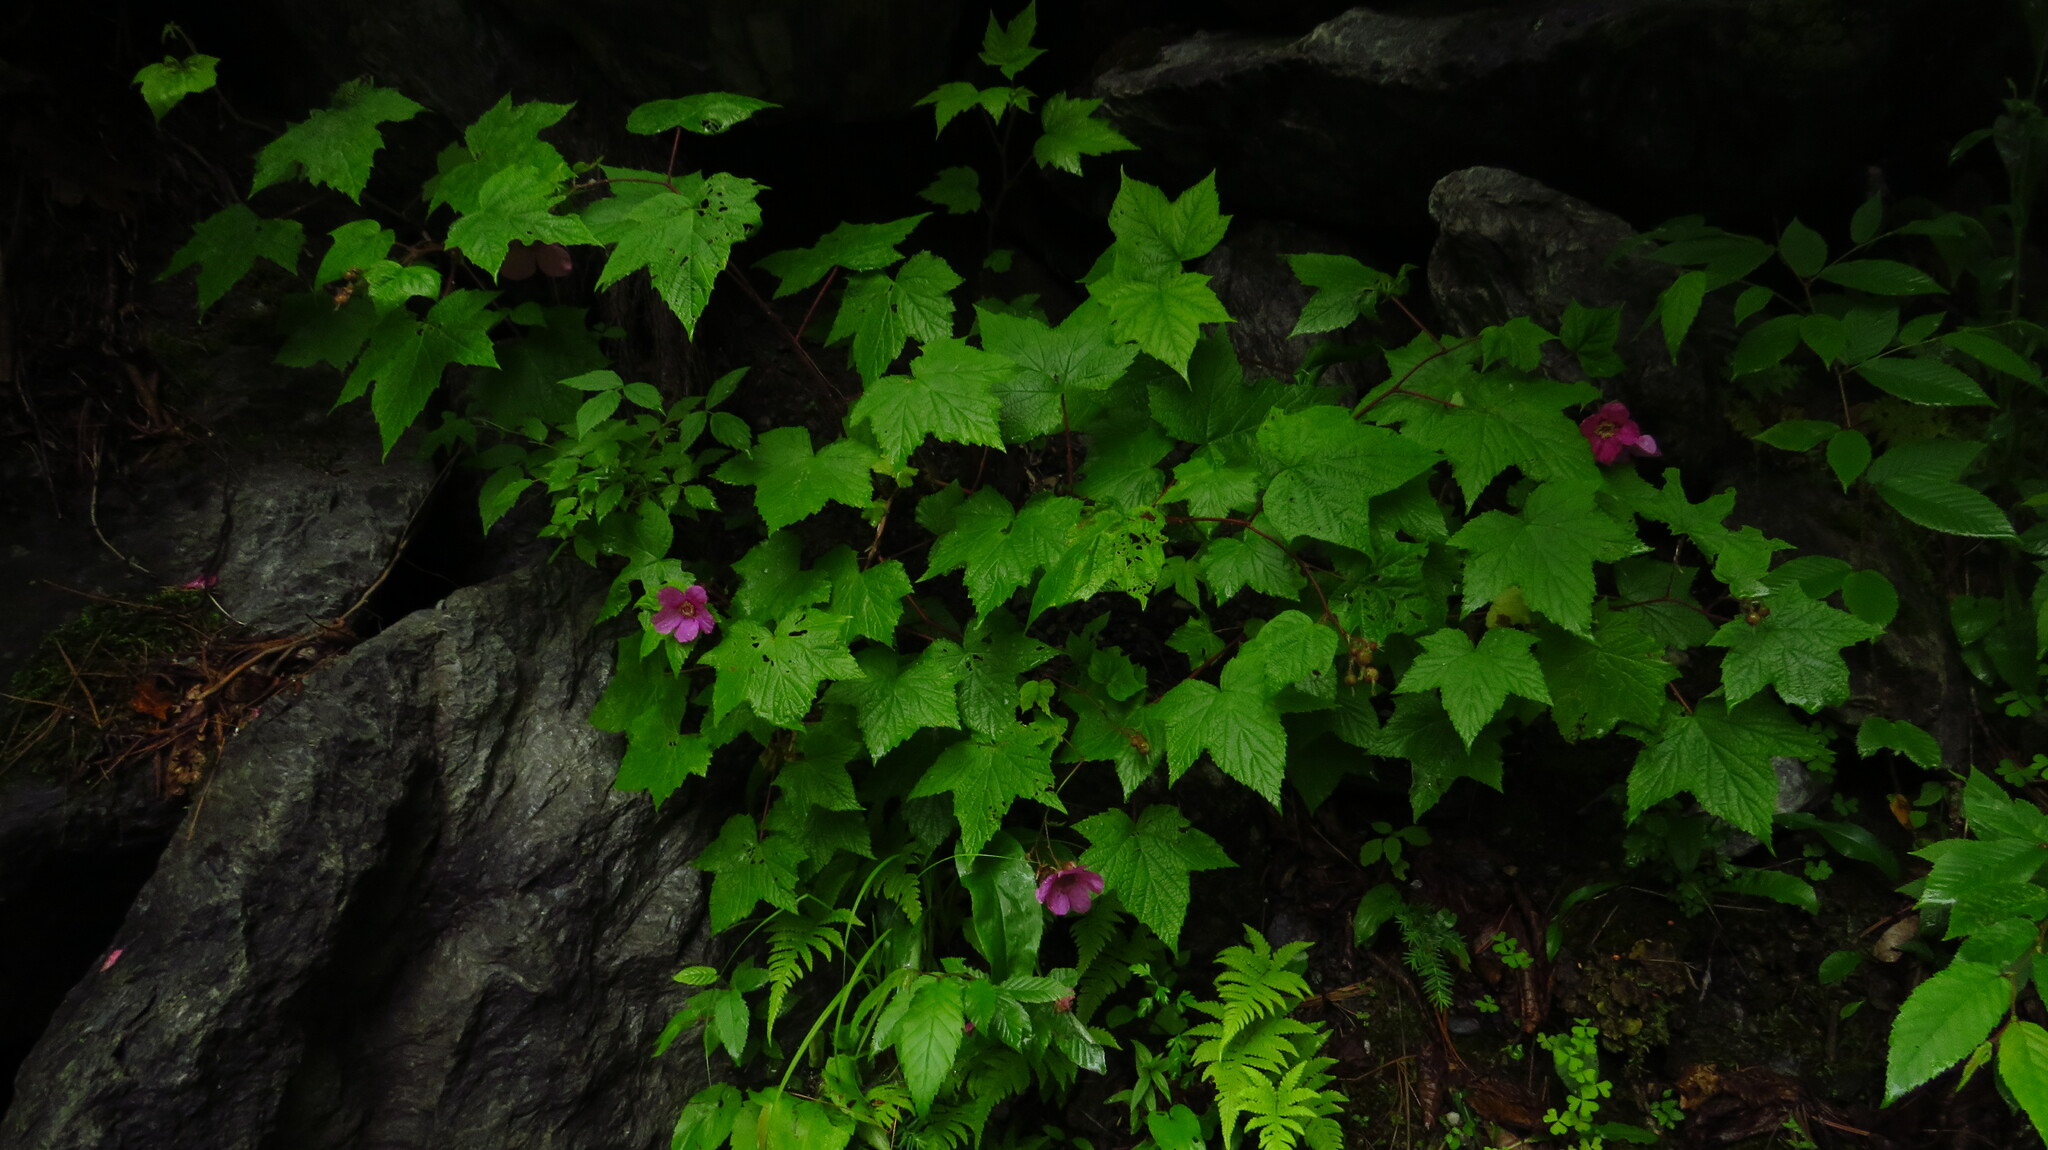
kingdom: Plantae
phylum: Tracheophyta
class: Magnoliopsida
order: Rosales
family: Rosaceae
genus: Rubus
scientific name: Rubus odoratus
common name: Purple-flowered raspberry
